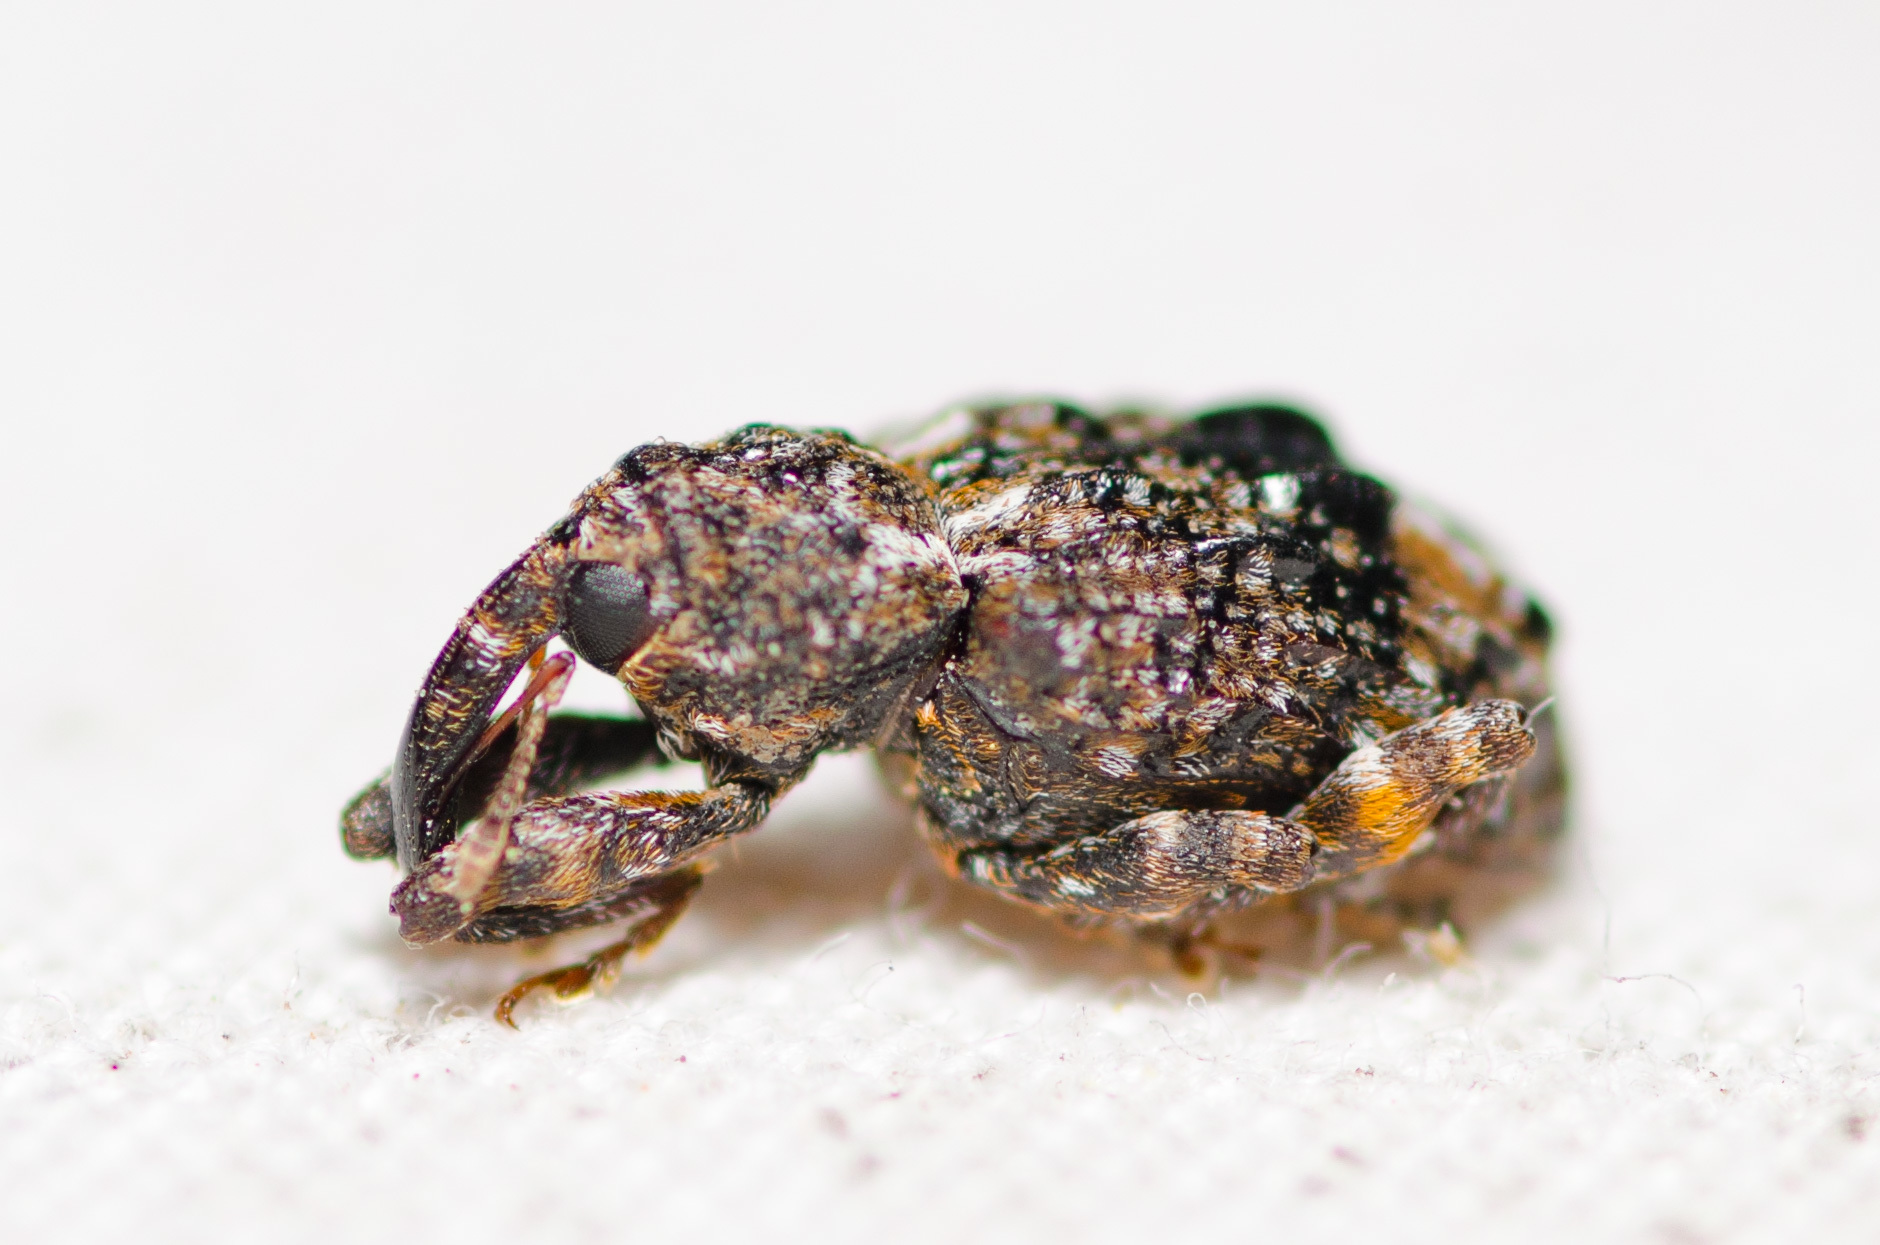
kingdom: Animalia
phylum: Arthropoda
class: Insecta
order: Coleoptera
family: Curculionidae
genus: Conotrachelus
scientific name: Conotrachelus nenuphar
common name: Plum curculio
